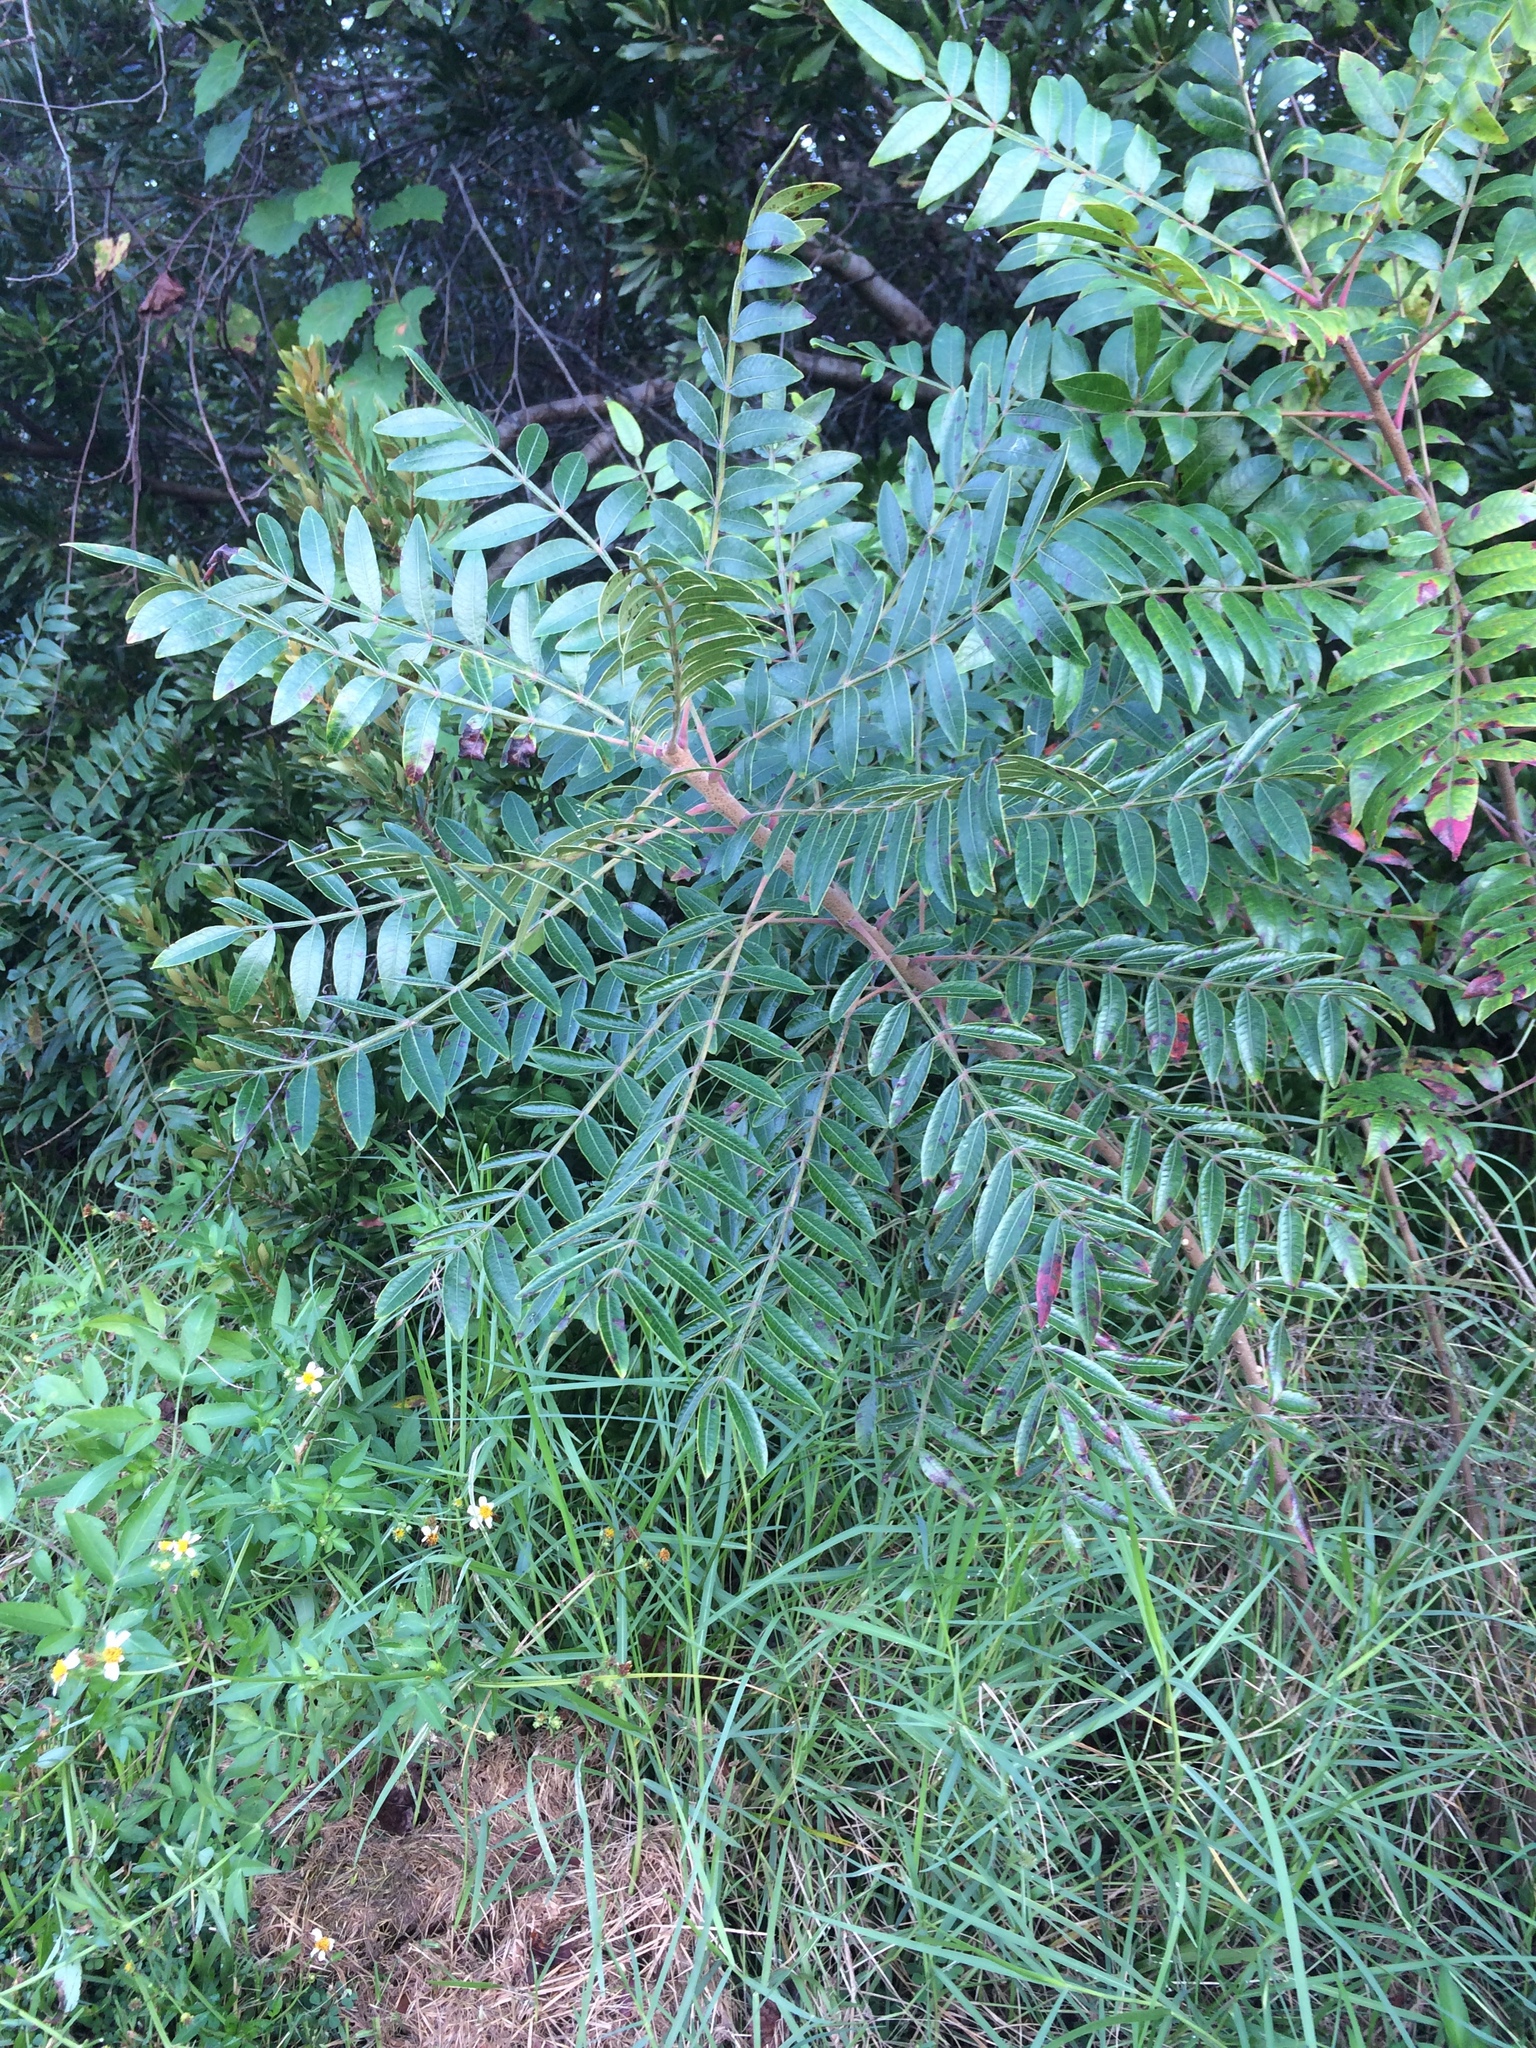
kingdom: Plantae
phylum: Tracheophyta
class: Magnoliopsida
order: Sapindales
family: Anacardiaceae
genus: Rhus
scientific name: Rhus copallina
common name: Shining sumac
